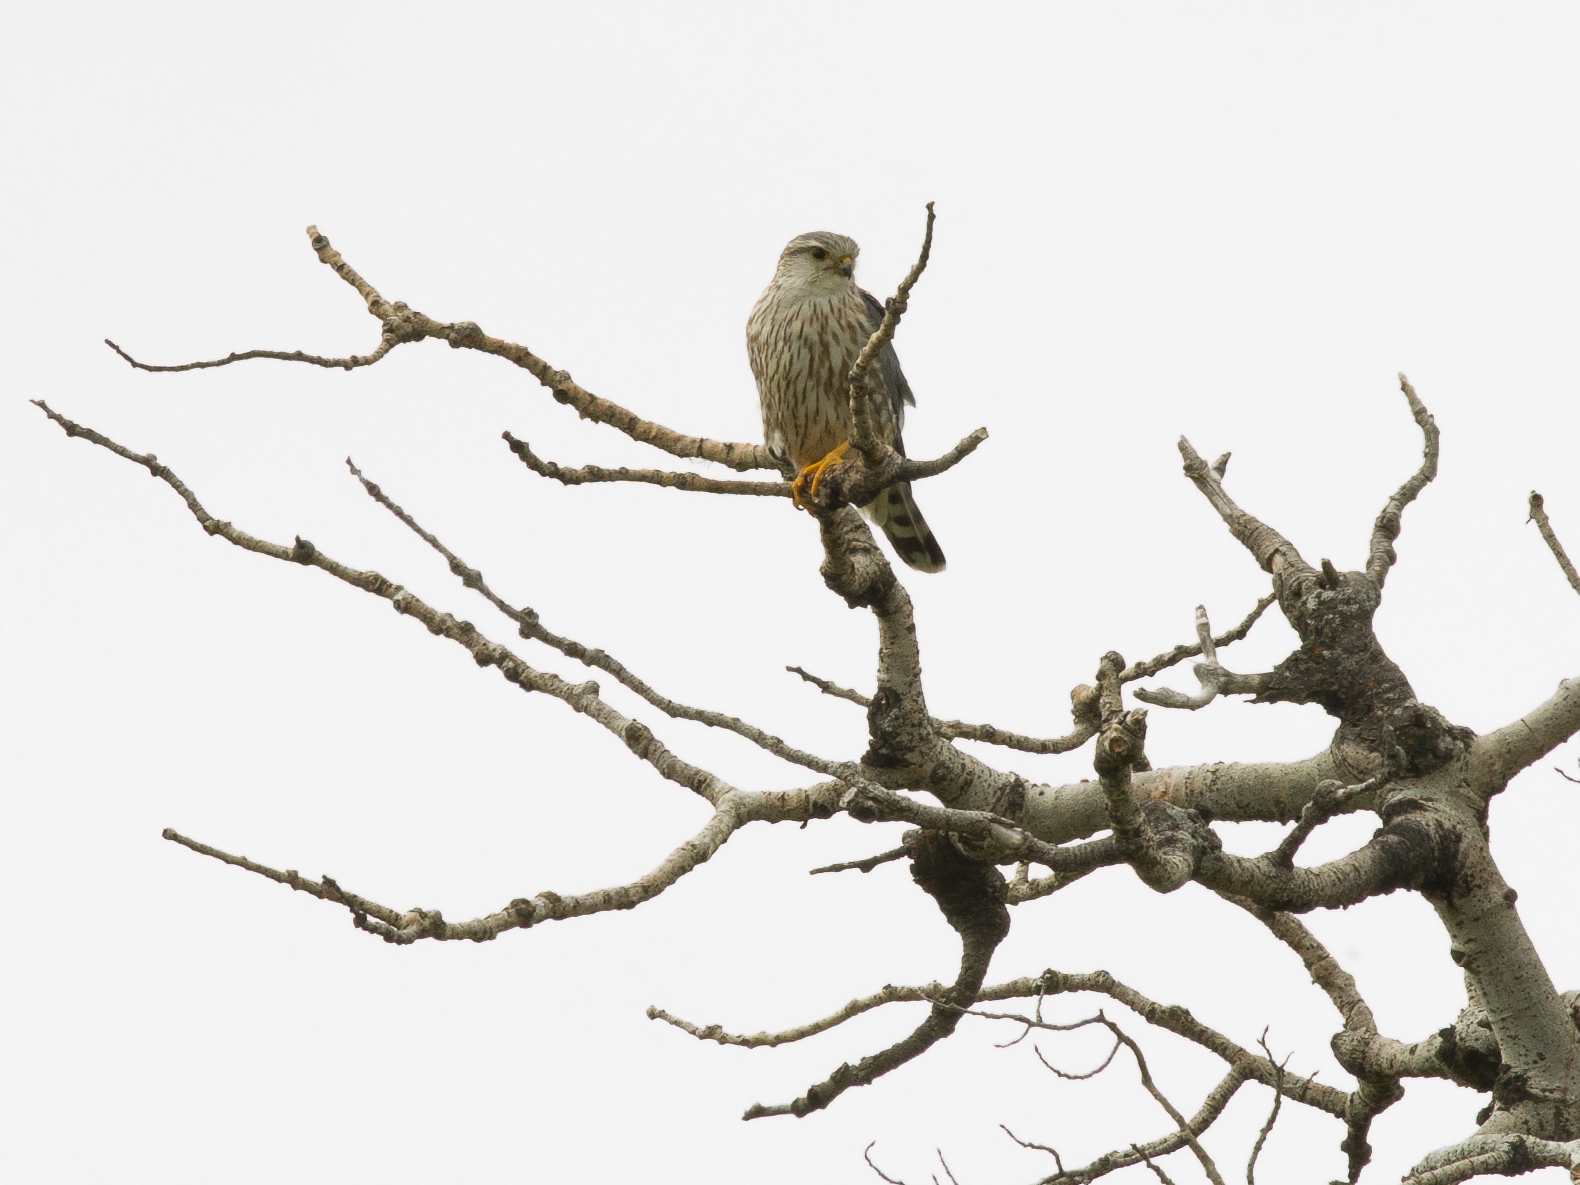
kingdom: Animalia
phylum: Chordata
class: Aves
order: Falconiformes
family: Falconidae
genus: Falco
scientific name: Falco columbarius
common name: Merlin
